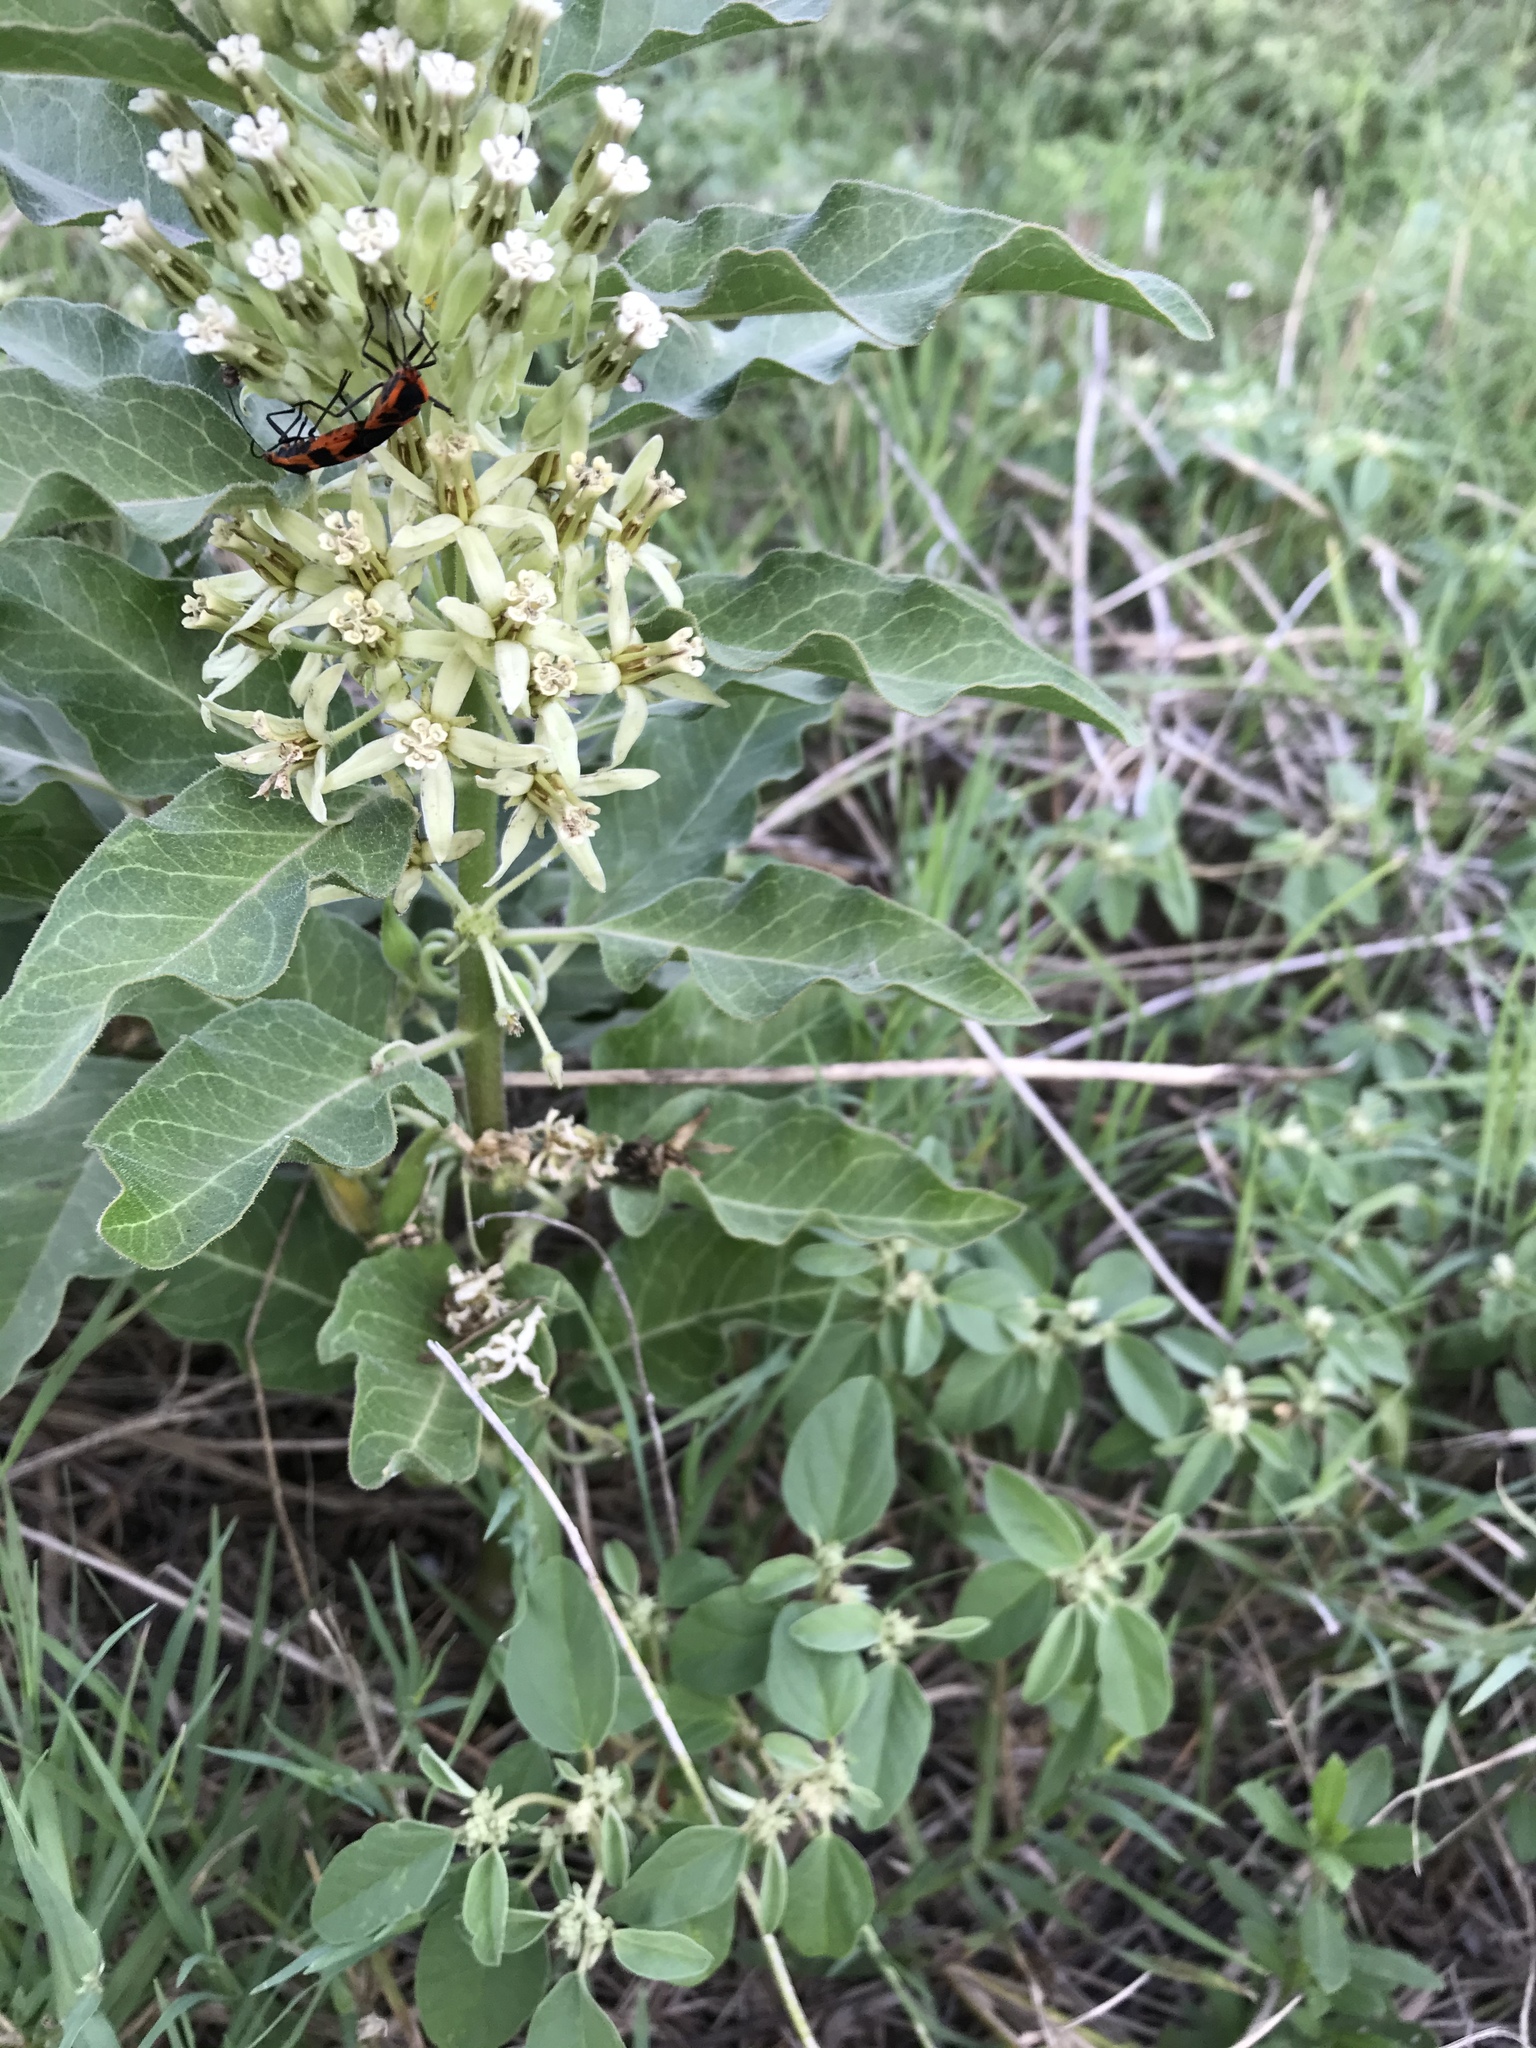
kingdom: Plantae
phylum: Tracheophyta
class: Magnoliopsida
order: Gentianales
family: Apocynaceae
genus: Asclepias
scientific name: Asclepias oenotheroides
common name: Zizotes milkweed
